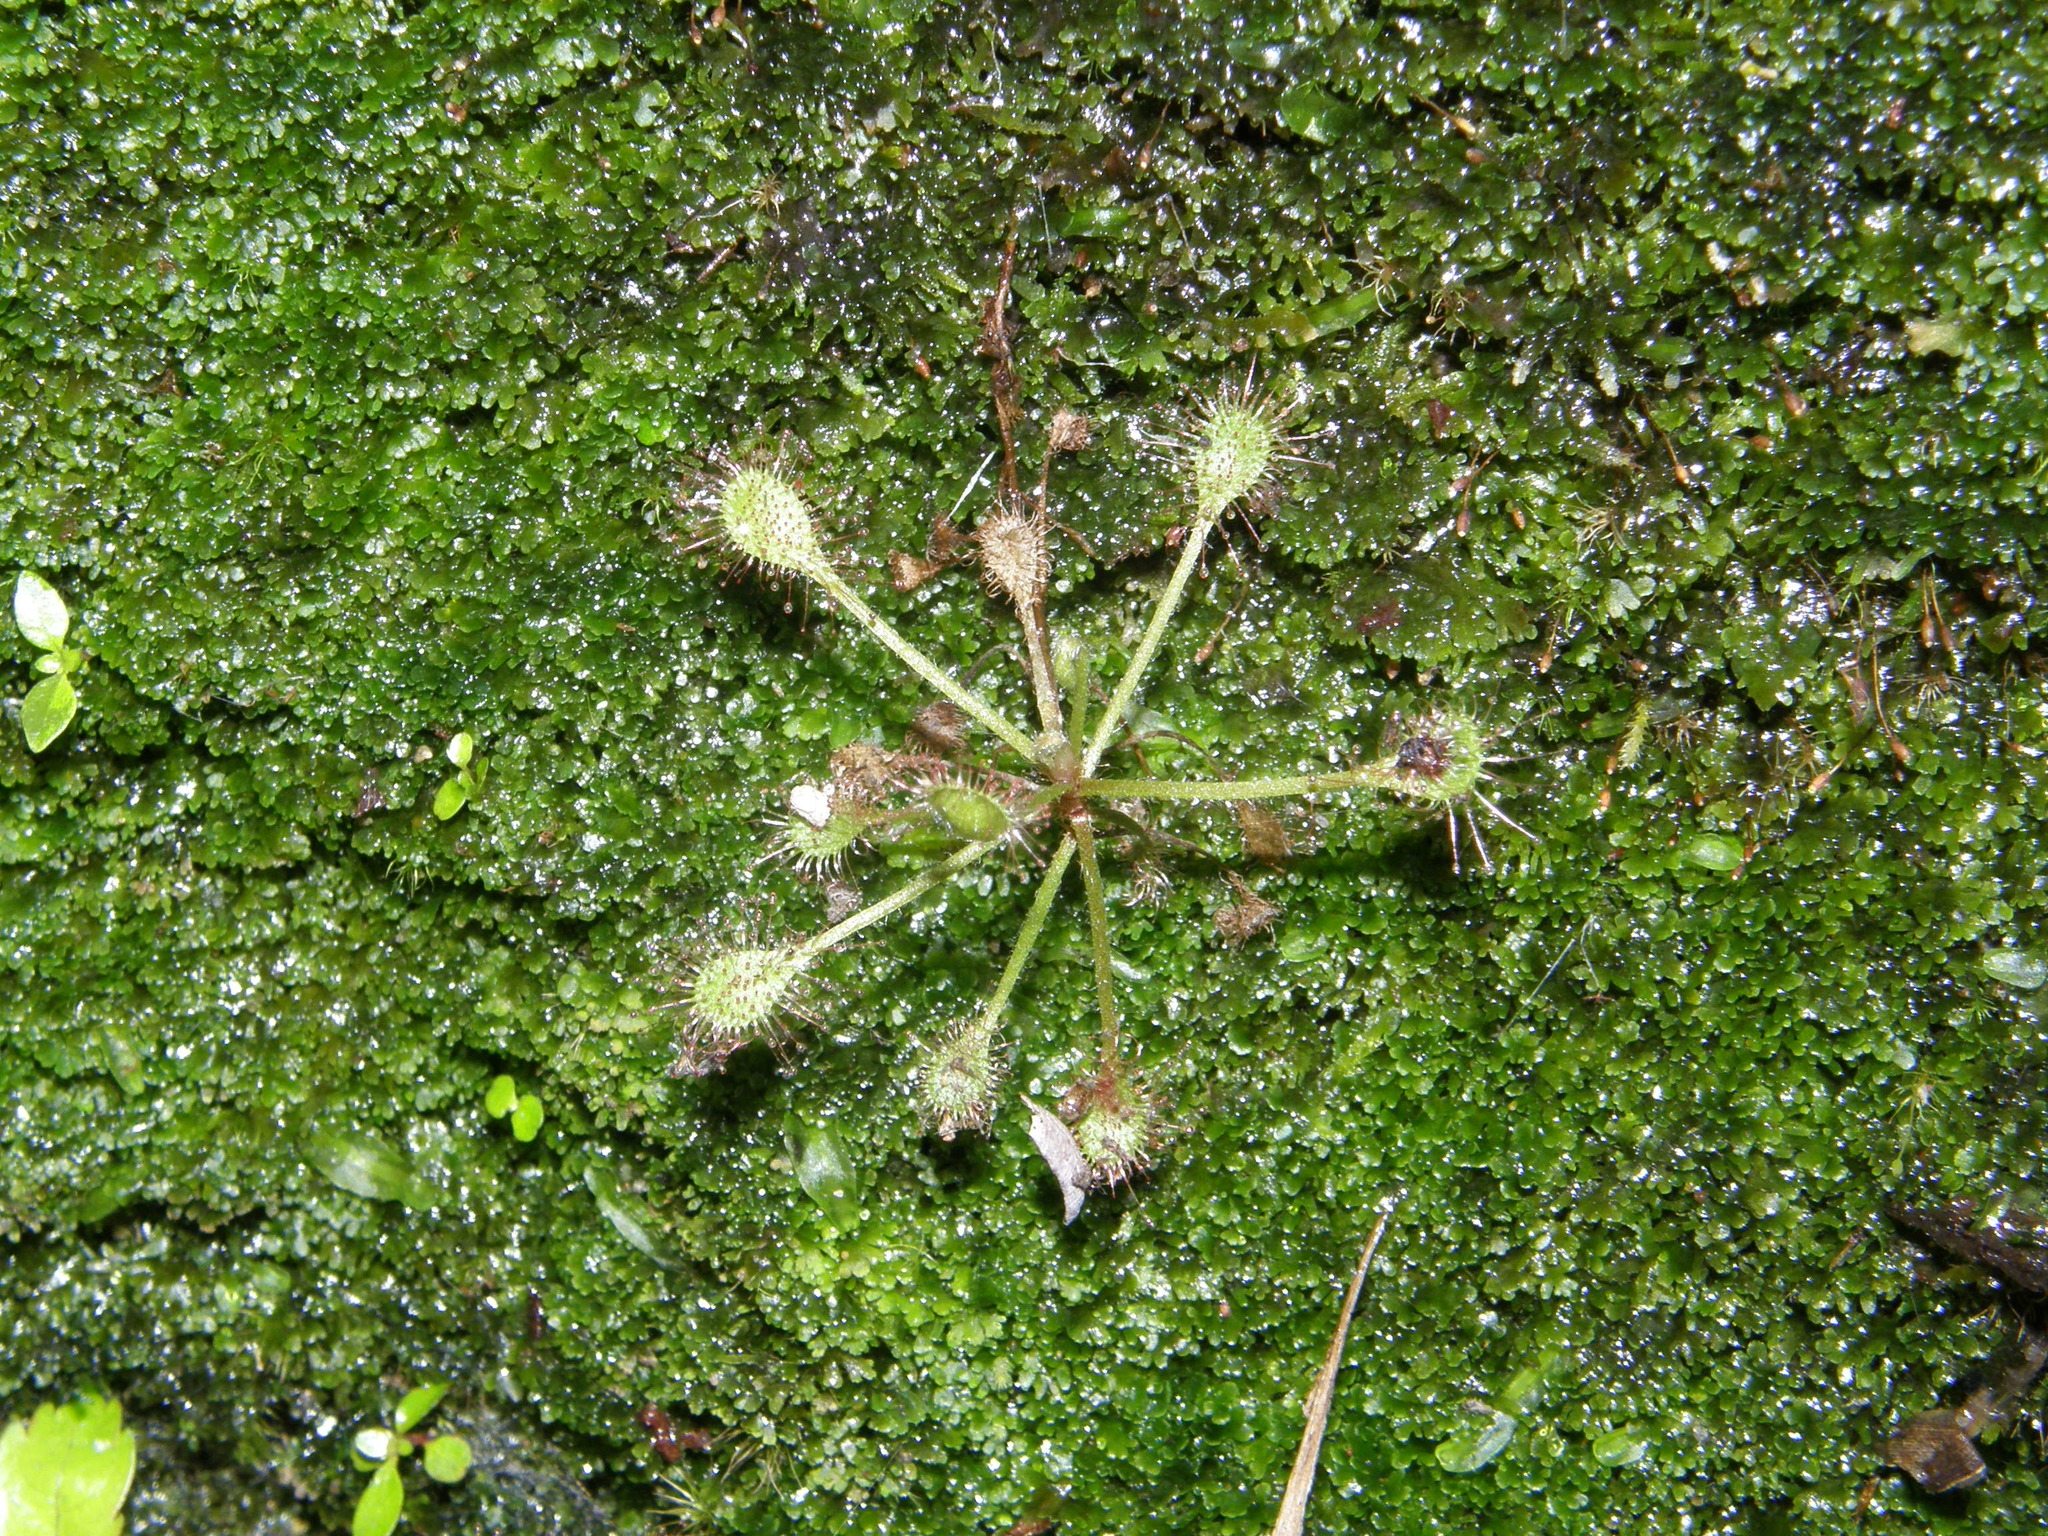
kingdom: Plantae
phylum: Tracheophyta
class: Magnoliopsida
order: Caryophyllales
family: Droseraceae
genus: Drosera
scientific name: Drosera madagascariensis
